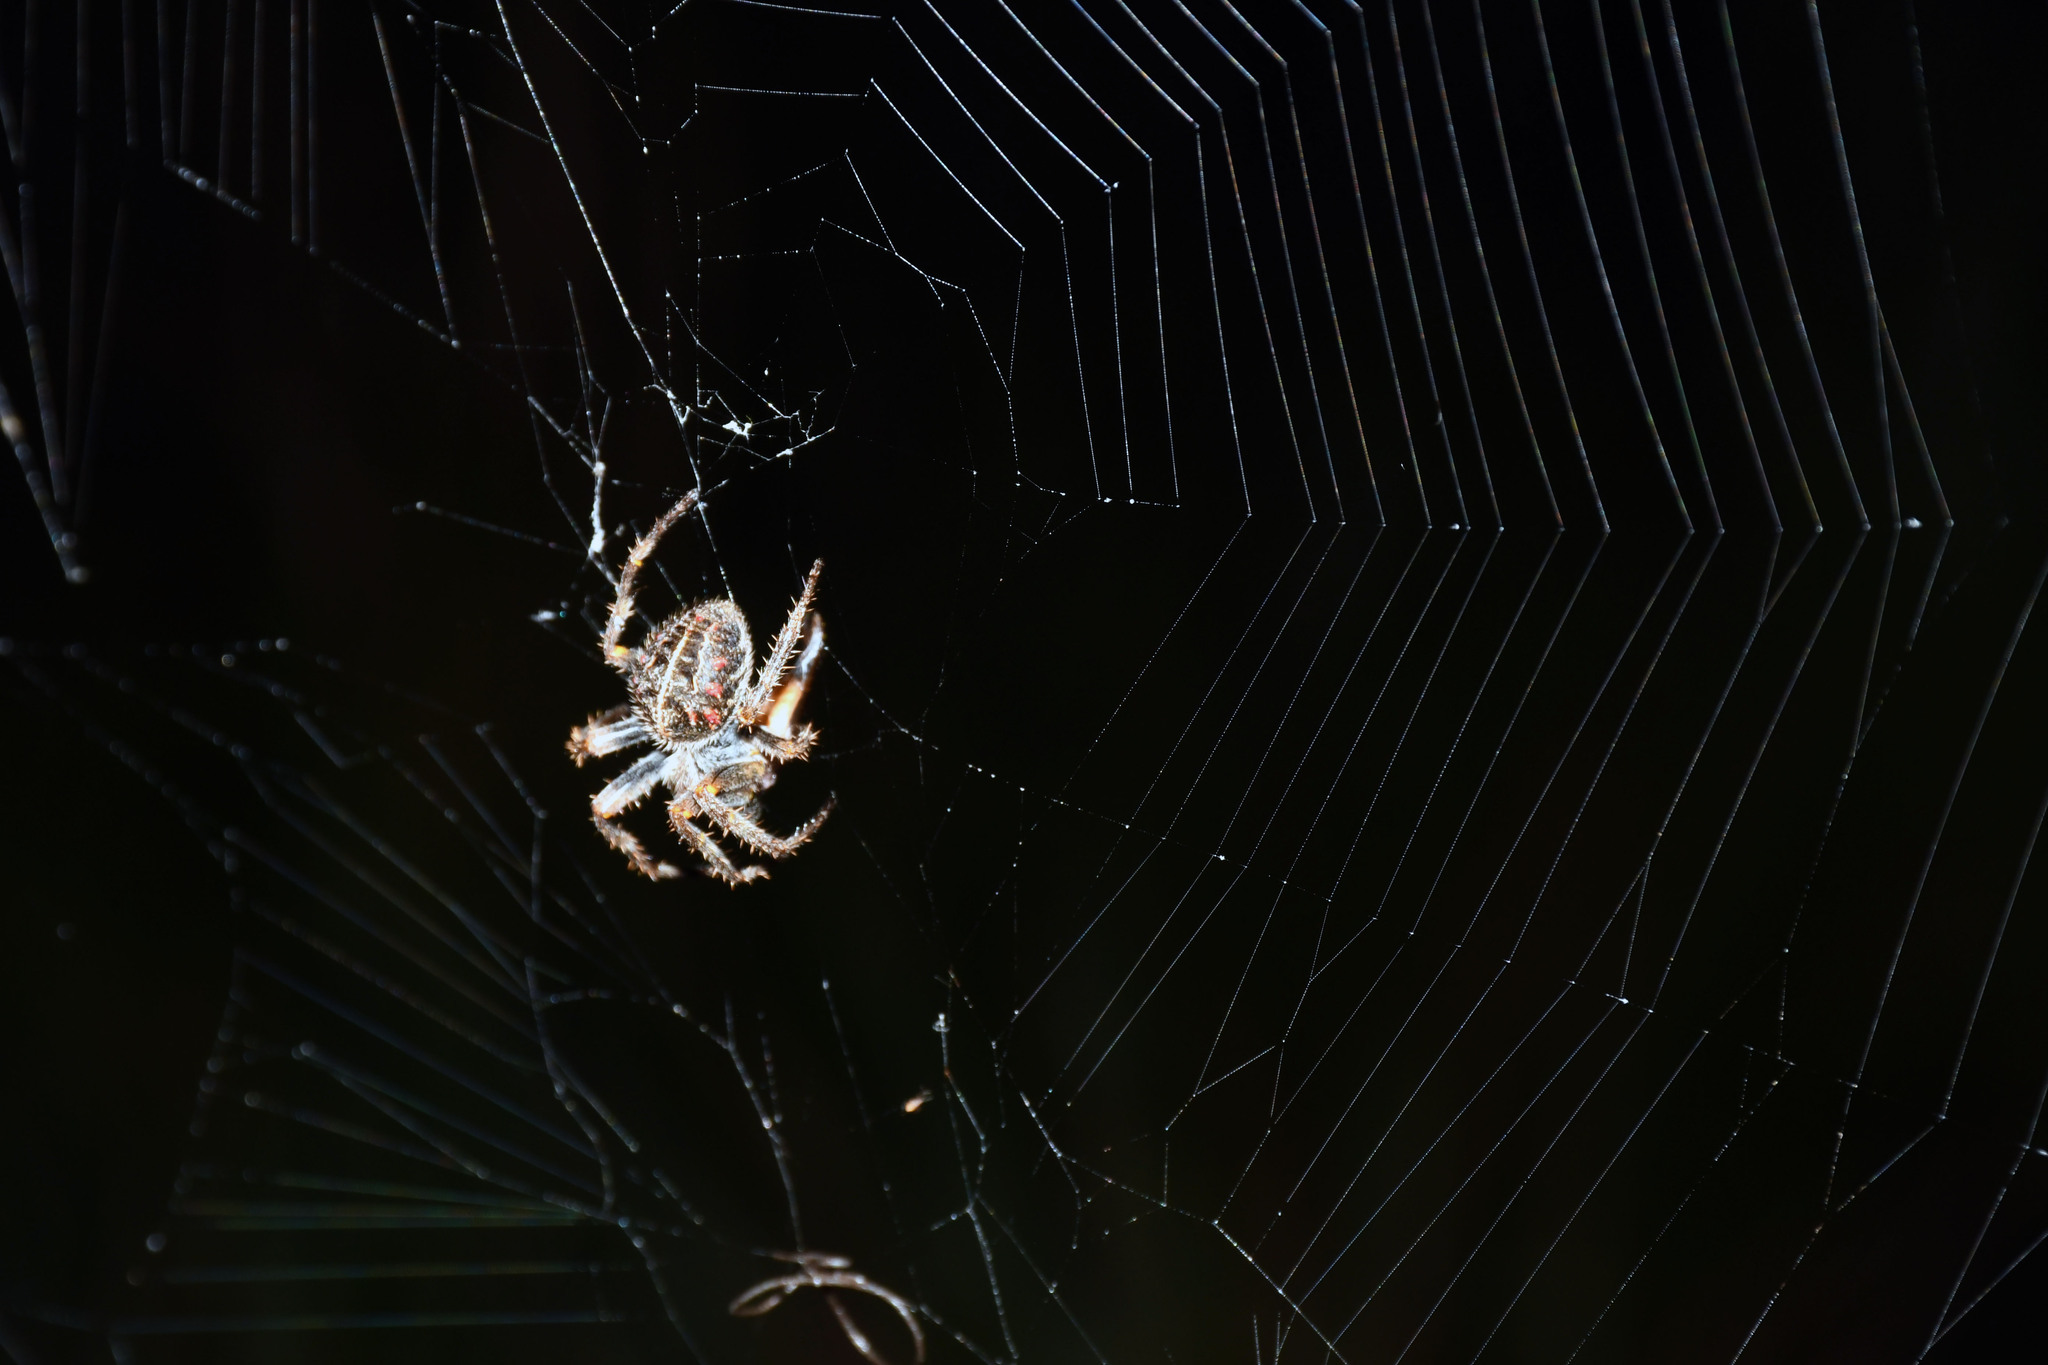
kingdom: Animalia
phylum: Arthropoda
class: Arachnida
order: Araneae
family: Araneidae
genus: Parawixia
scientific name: Parawixia bistriata
